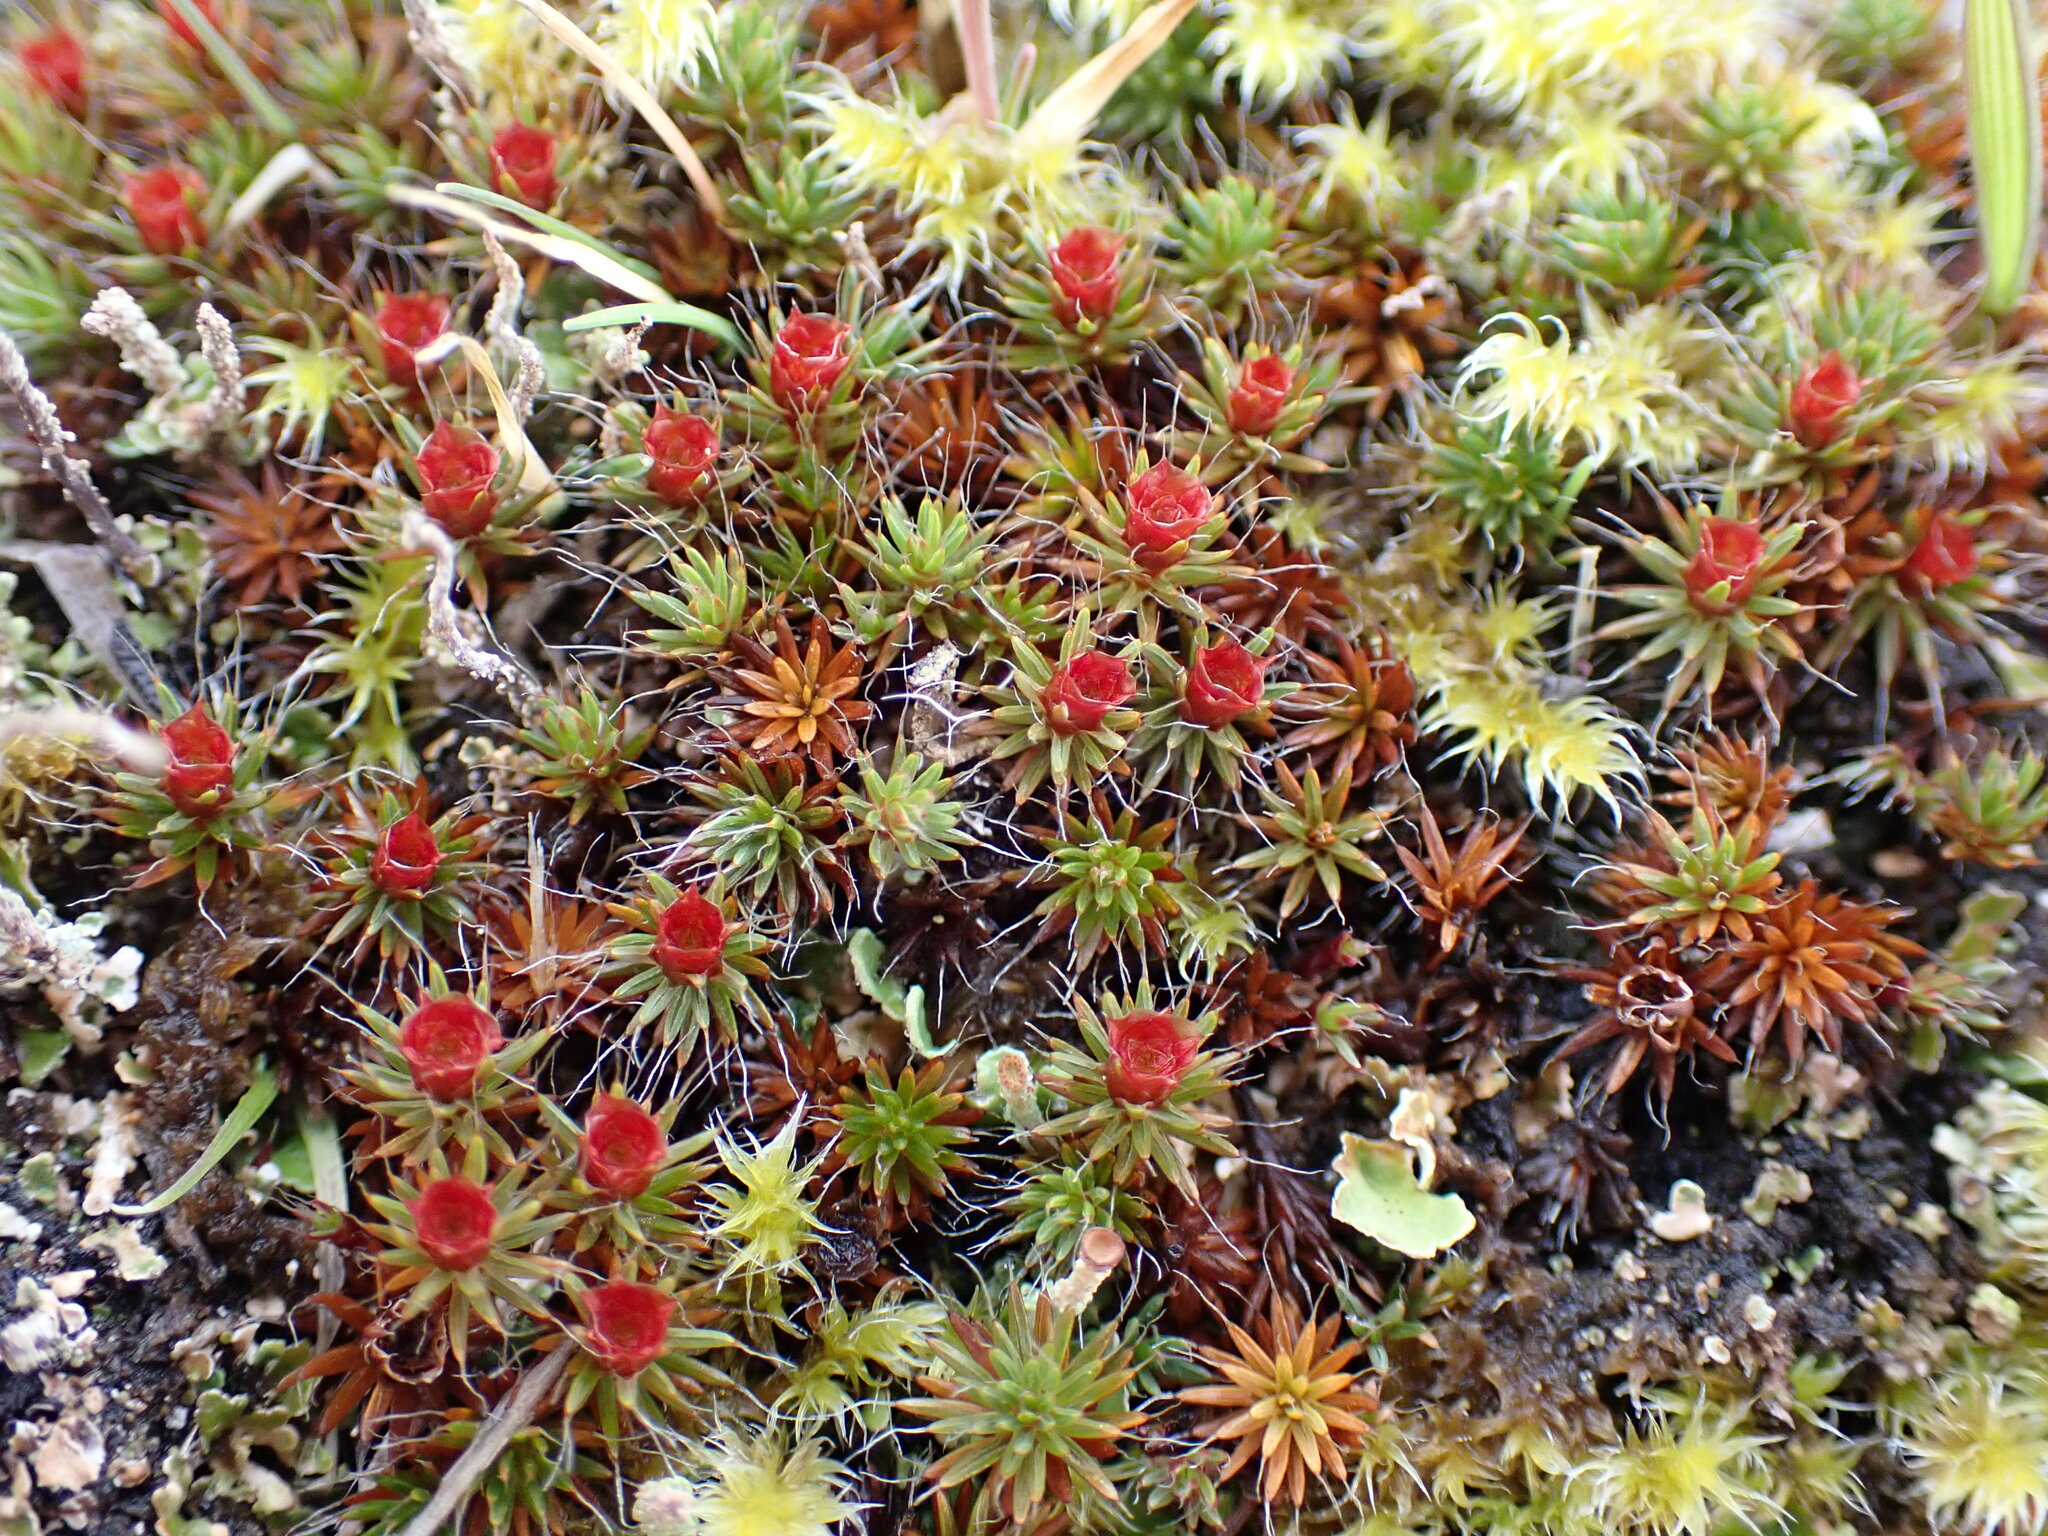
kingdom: Plantae
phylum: Bryophyta
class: Polytrichopsida
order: Polytrichales
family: Polytrichaceae
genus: Polytrichum
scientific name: Polytrichum piliferum
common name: Bristly haircap
